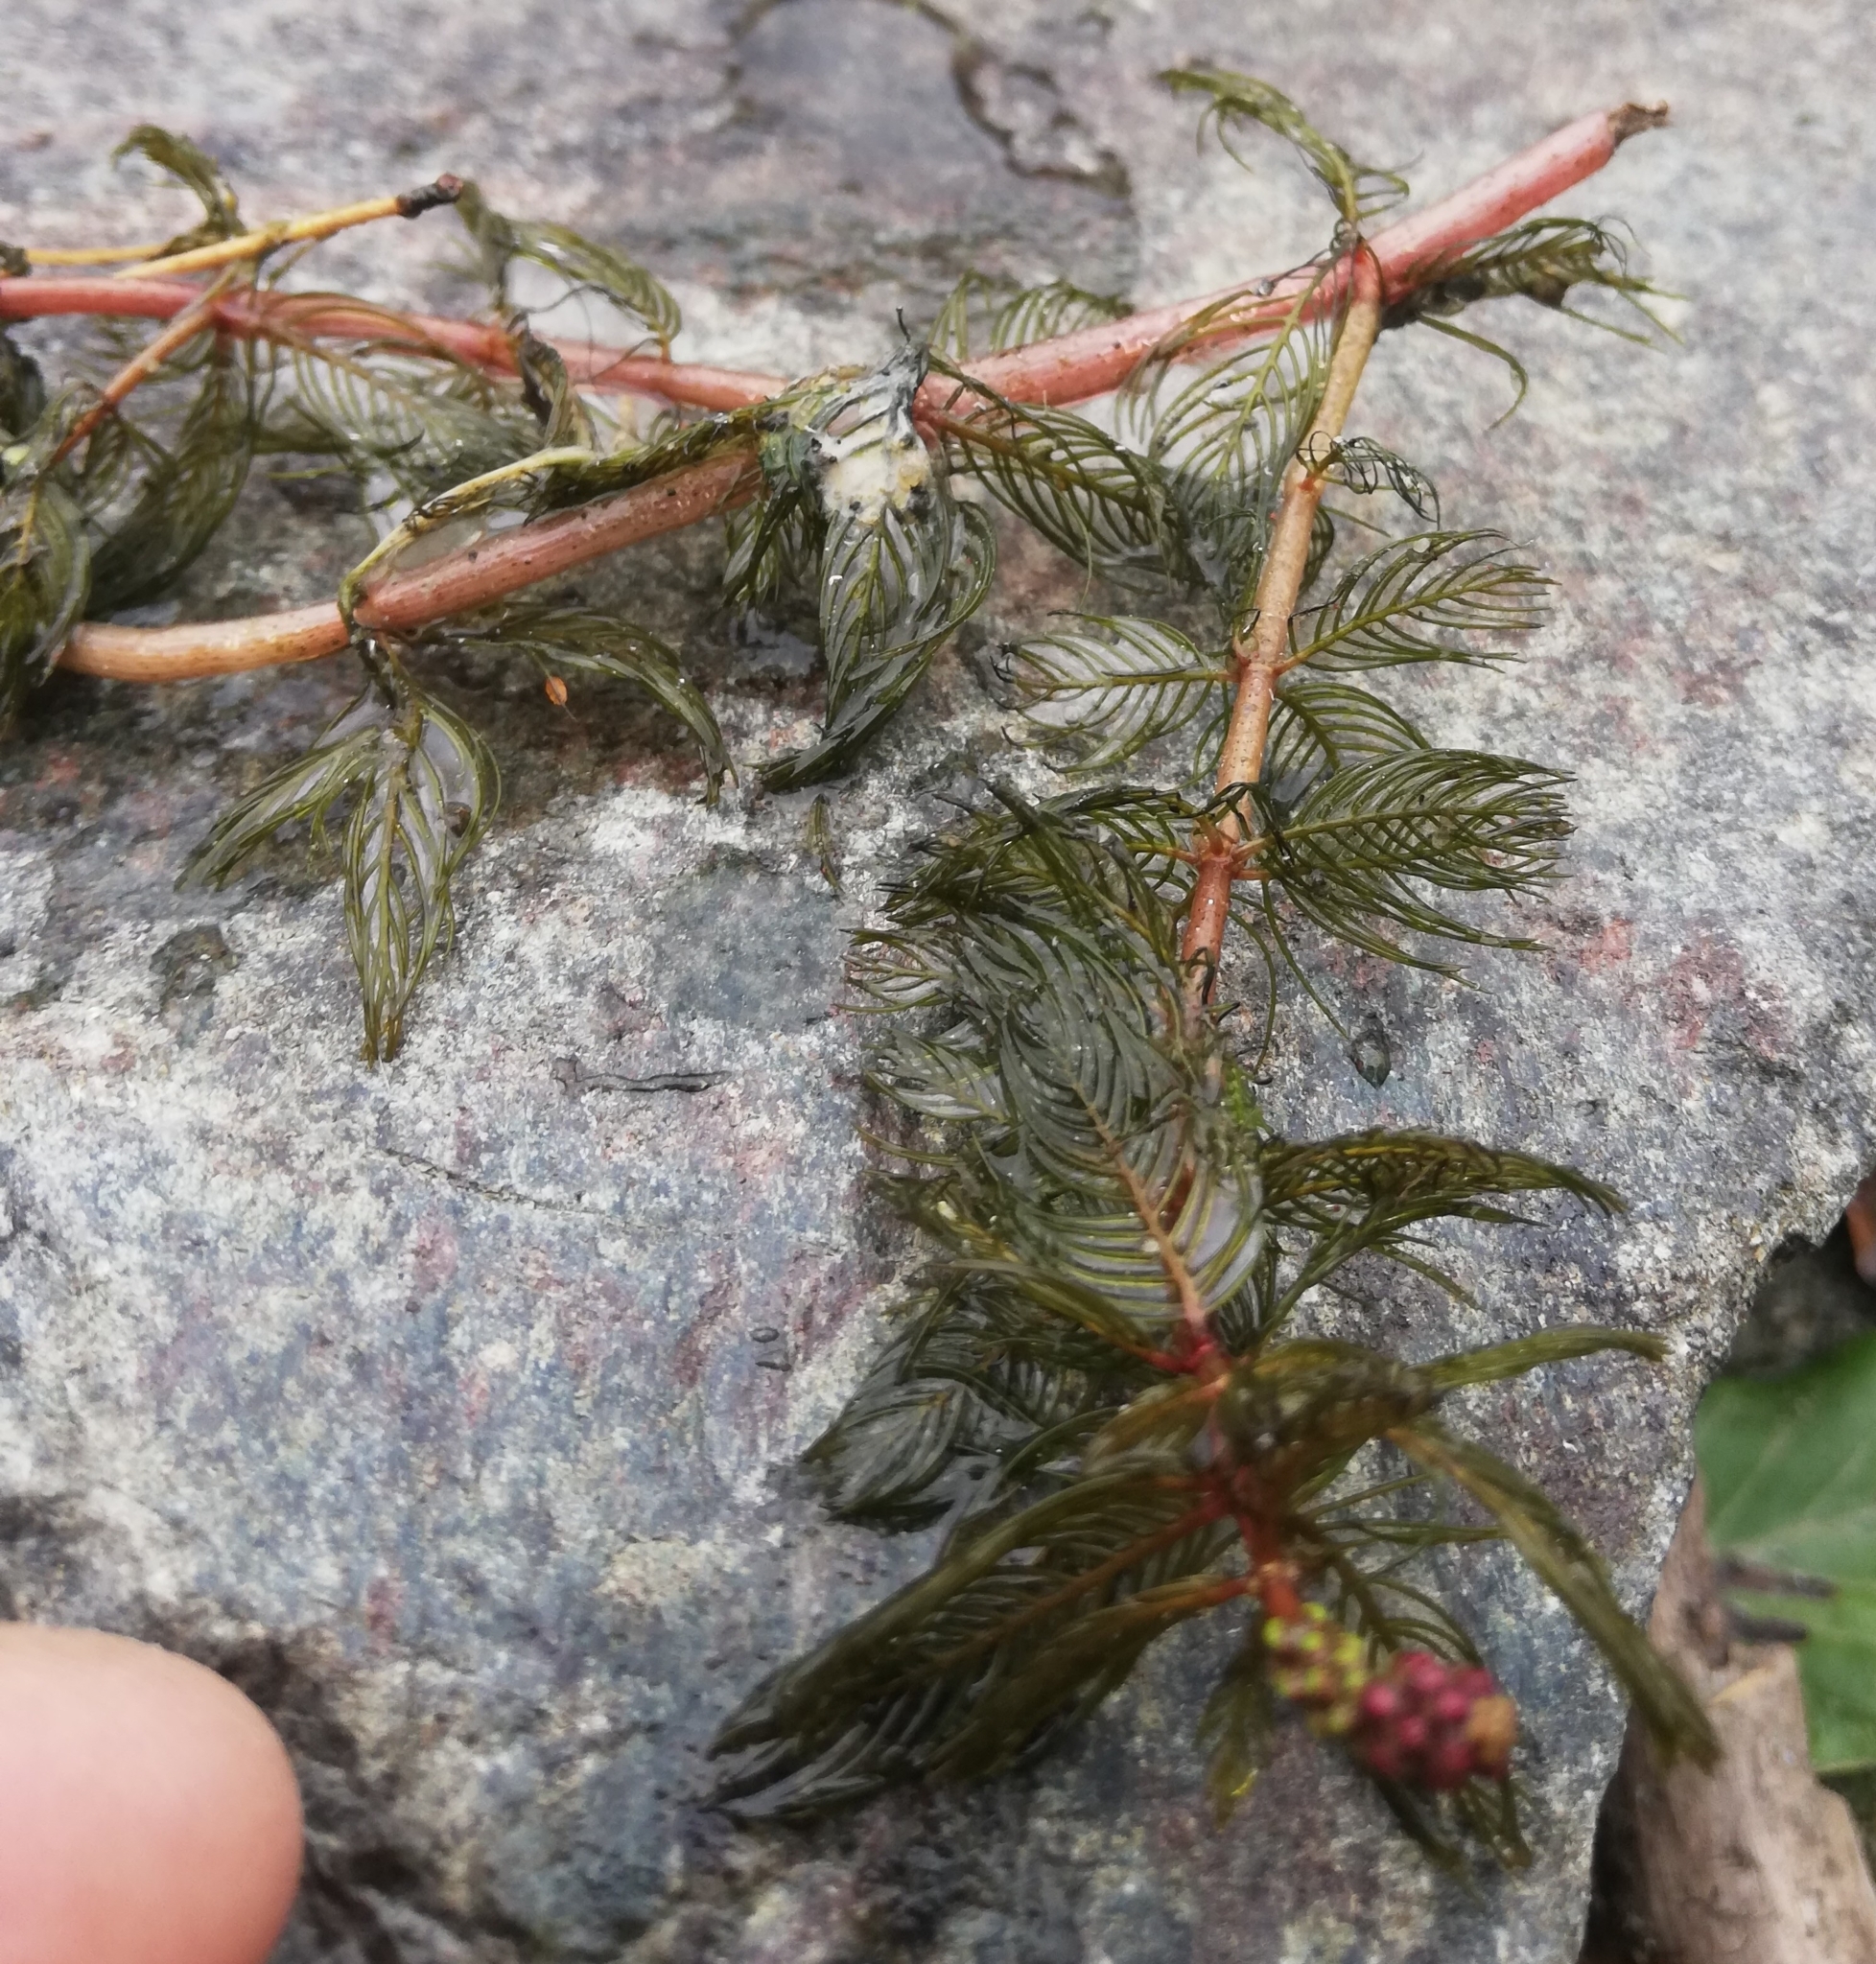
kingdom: Plantae
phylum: Tracheophyta
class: Magnoliopsida
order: Saxifragales
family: Haloragaceae
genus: Myriophyllum
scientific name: Myriophyllum spicatum
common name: Spiked water-milfoil
